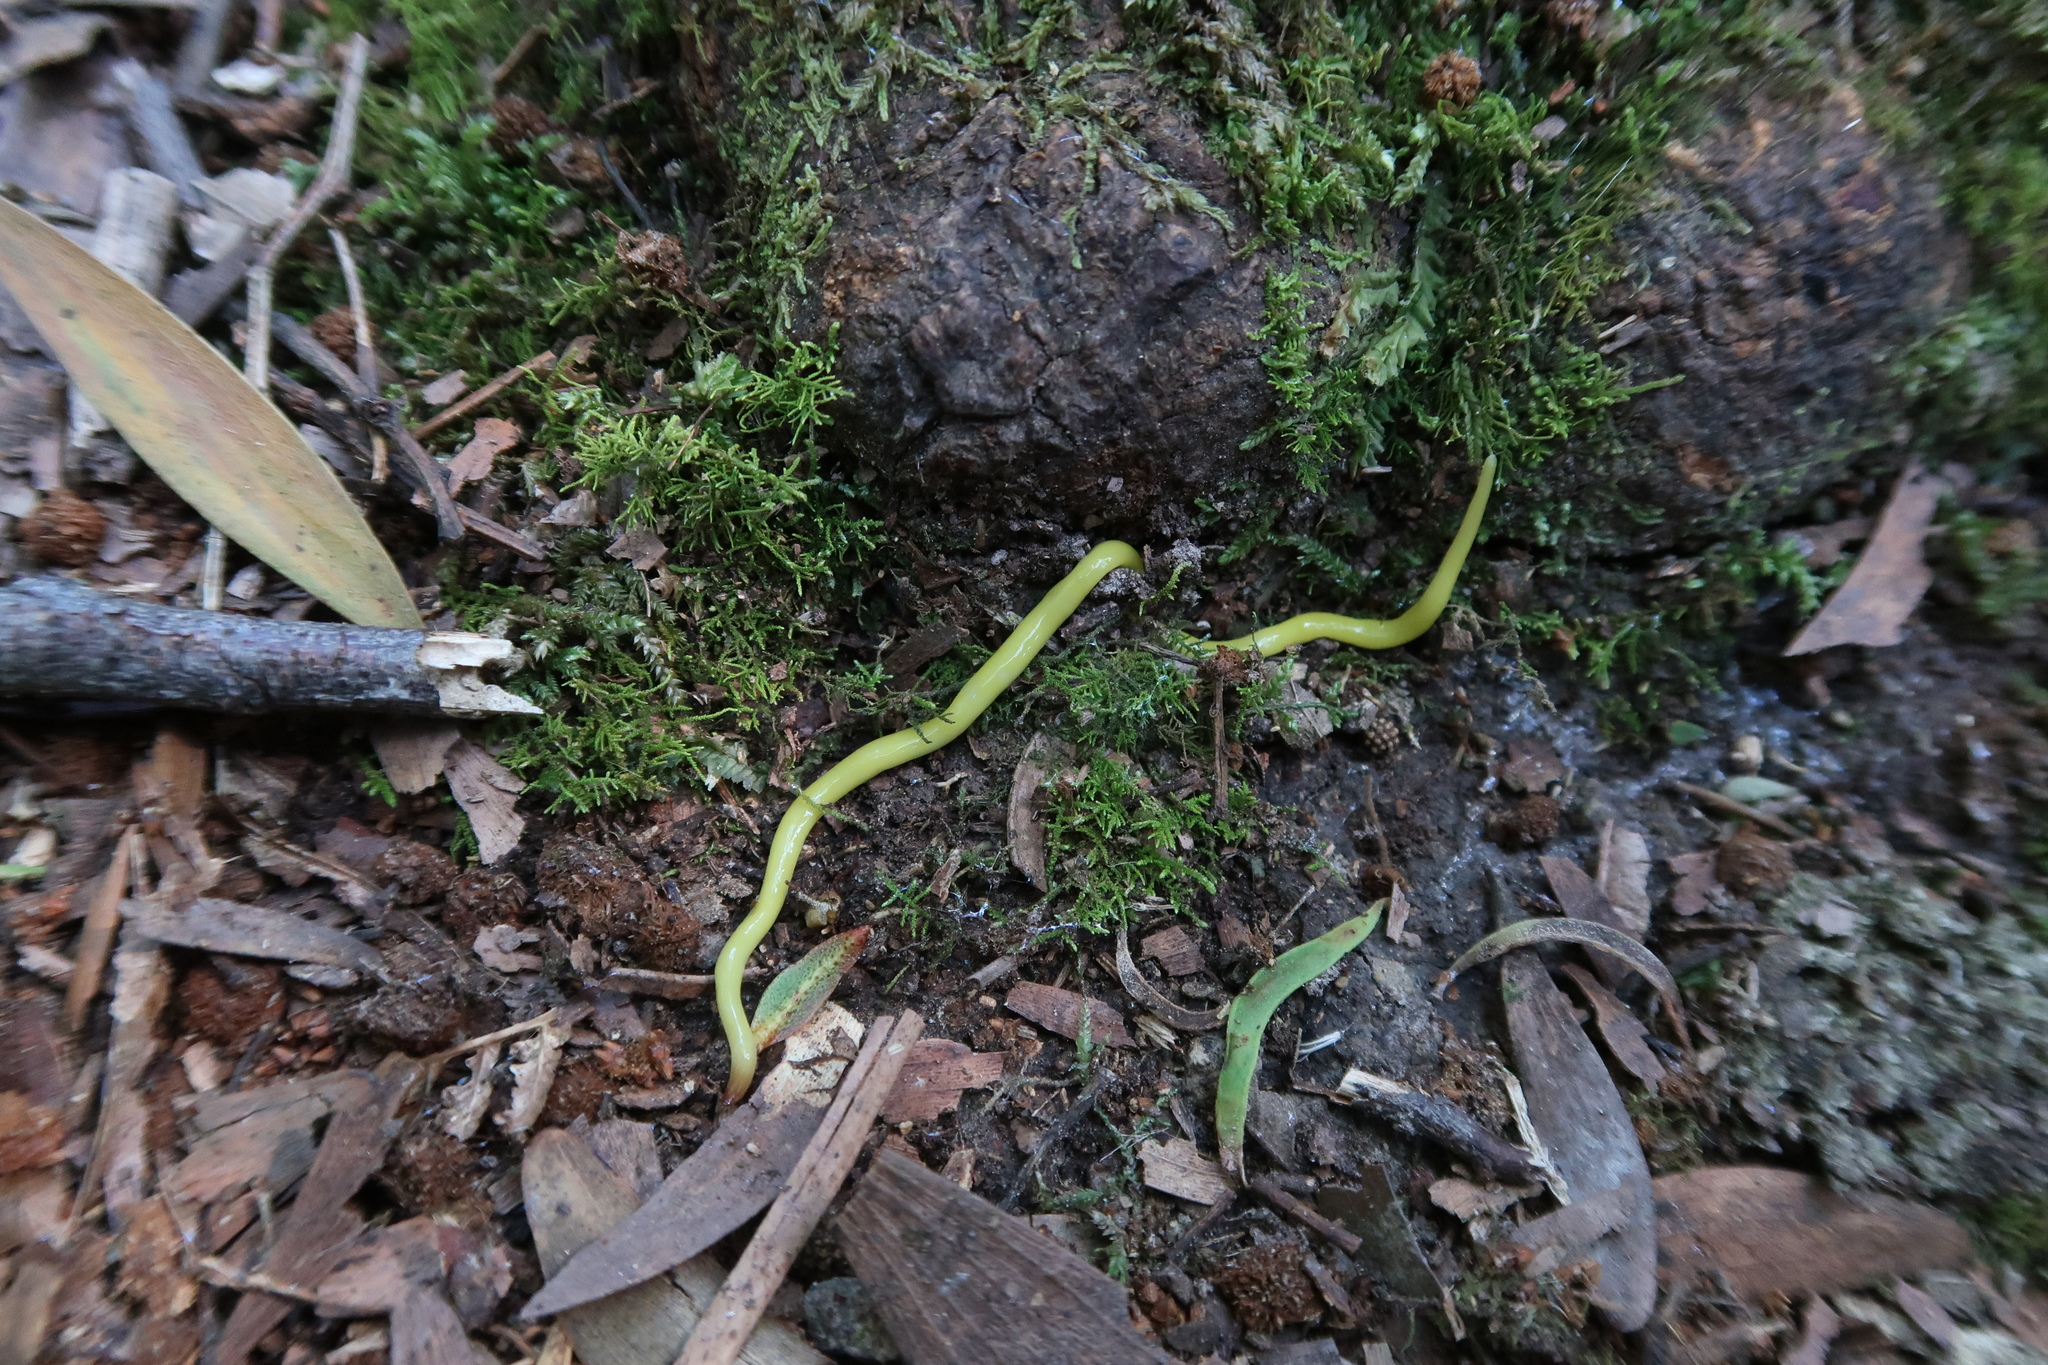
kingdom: Animalia
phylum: Platyhelminthes
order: Tricladida
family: Geoplanidae
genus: Fletchamia
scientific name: Fletchamia sugdeni
